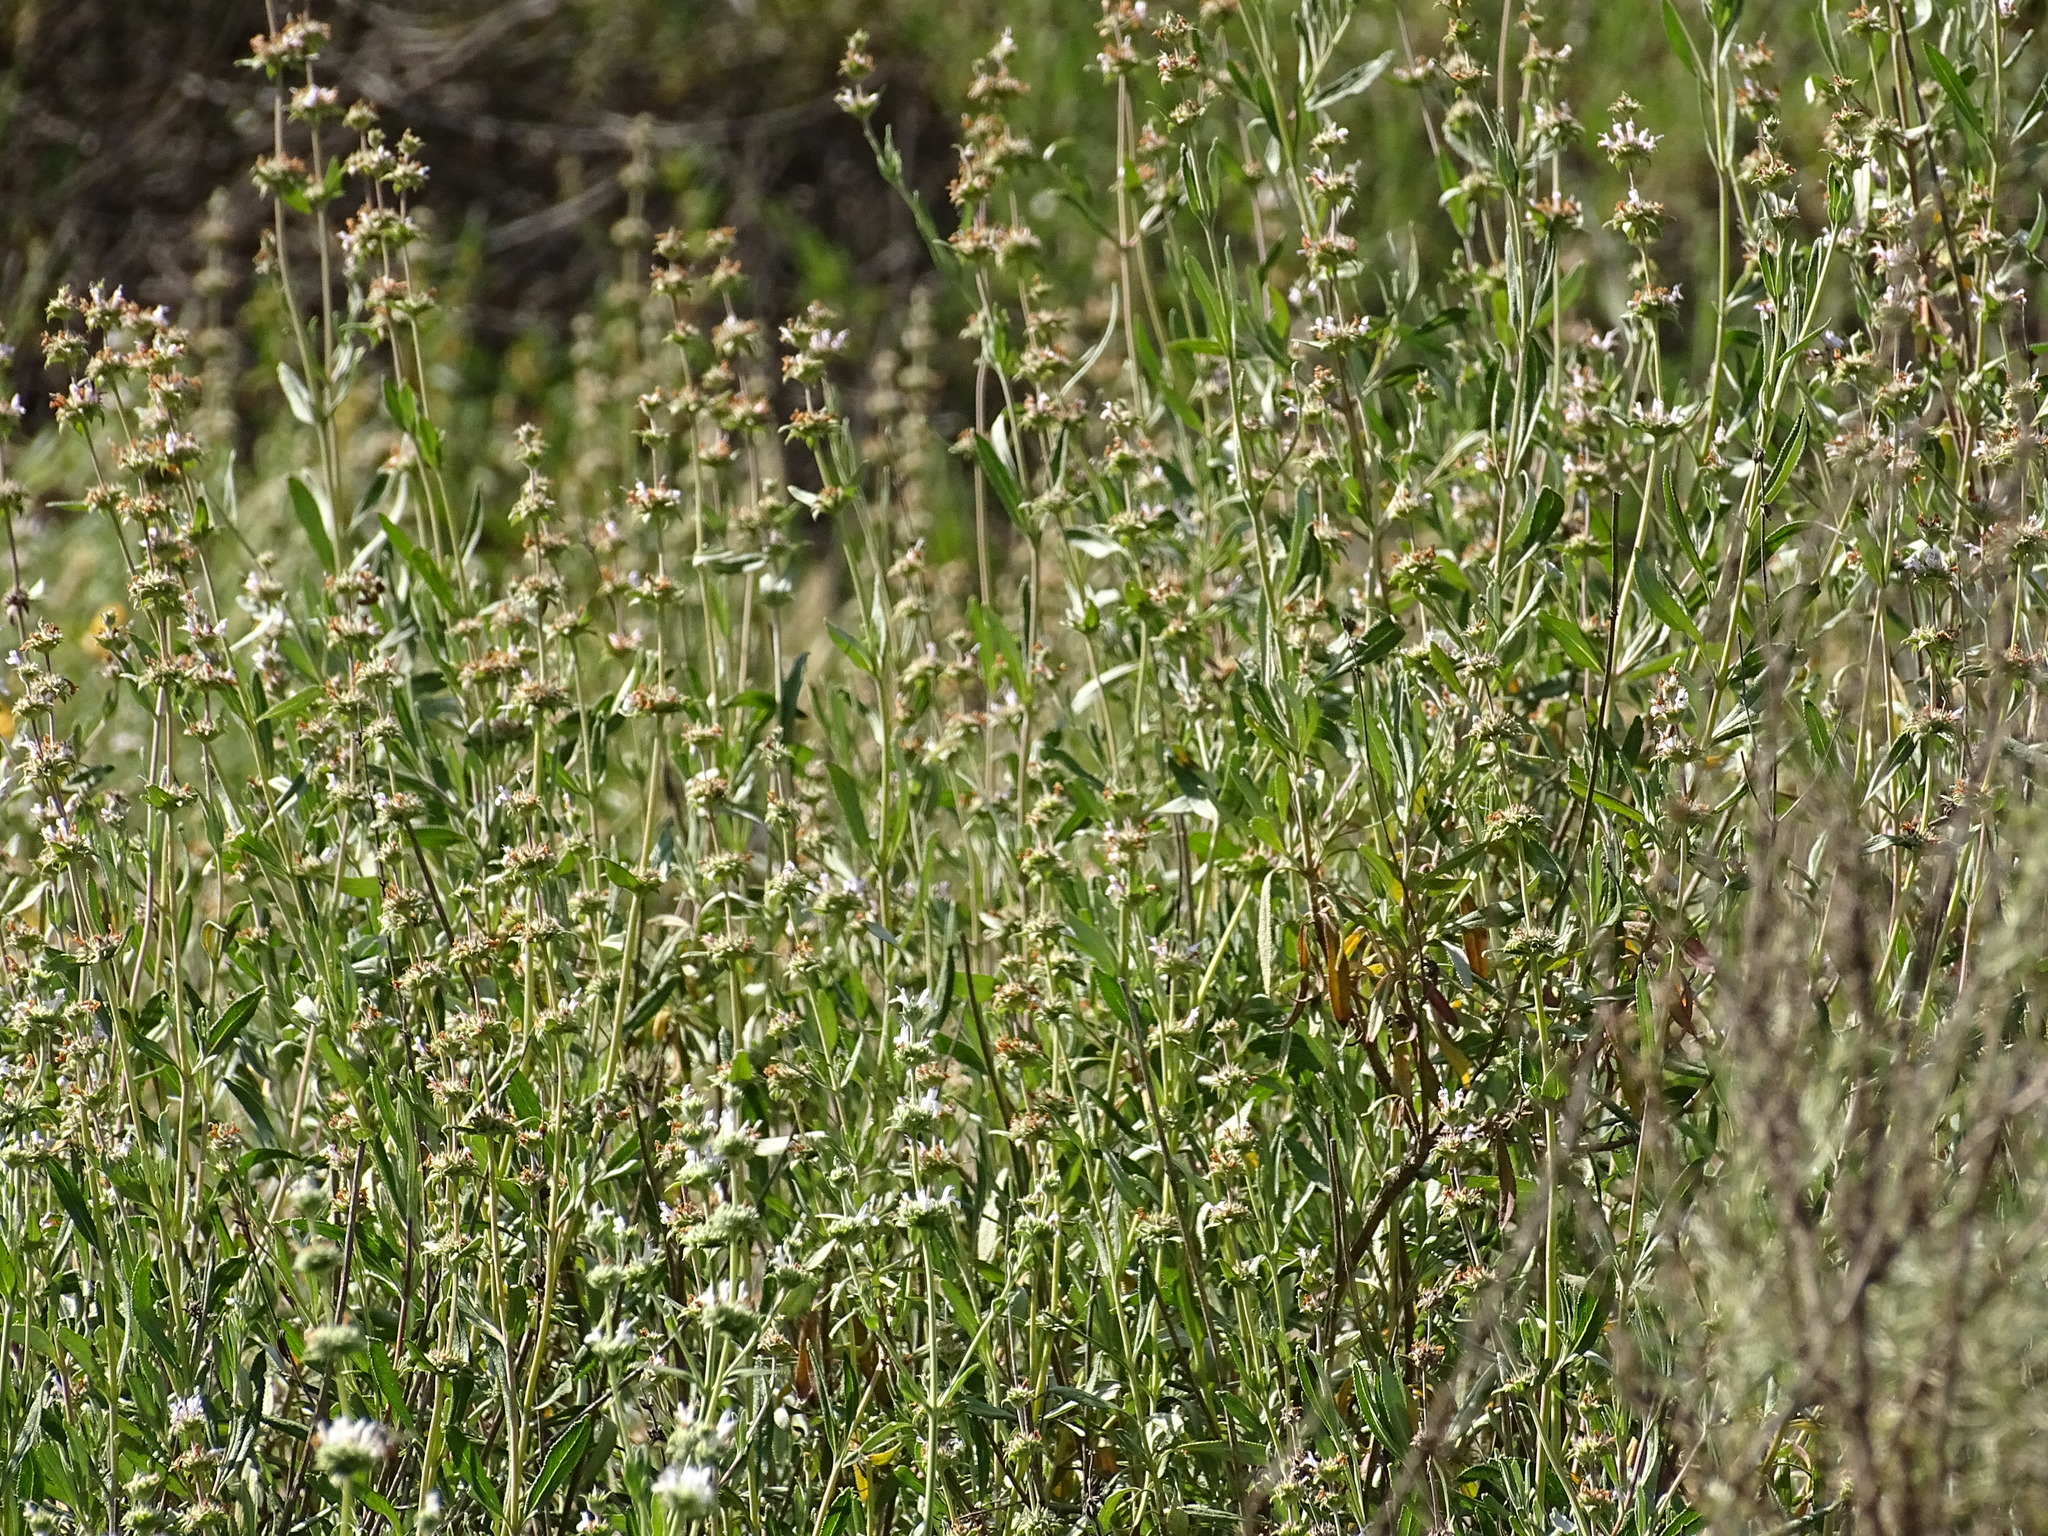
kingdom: Plantae
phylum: Tracheophyta
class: Magnoliopsida
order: Lamiales
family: Lamiaceae
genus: Salvia
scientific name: Salvia mellifera
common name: Black sage
